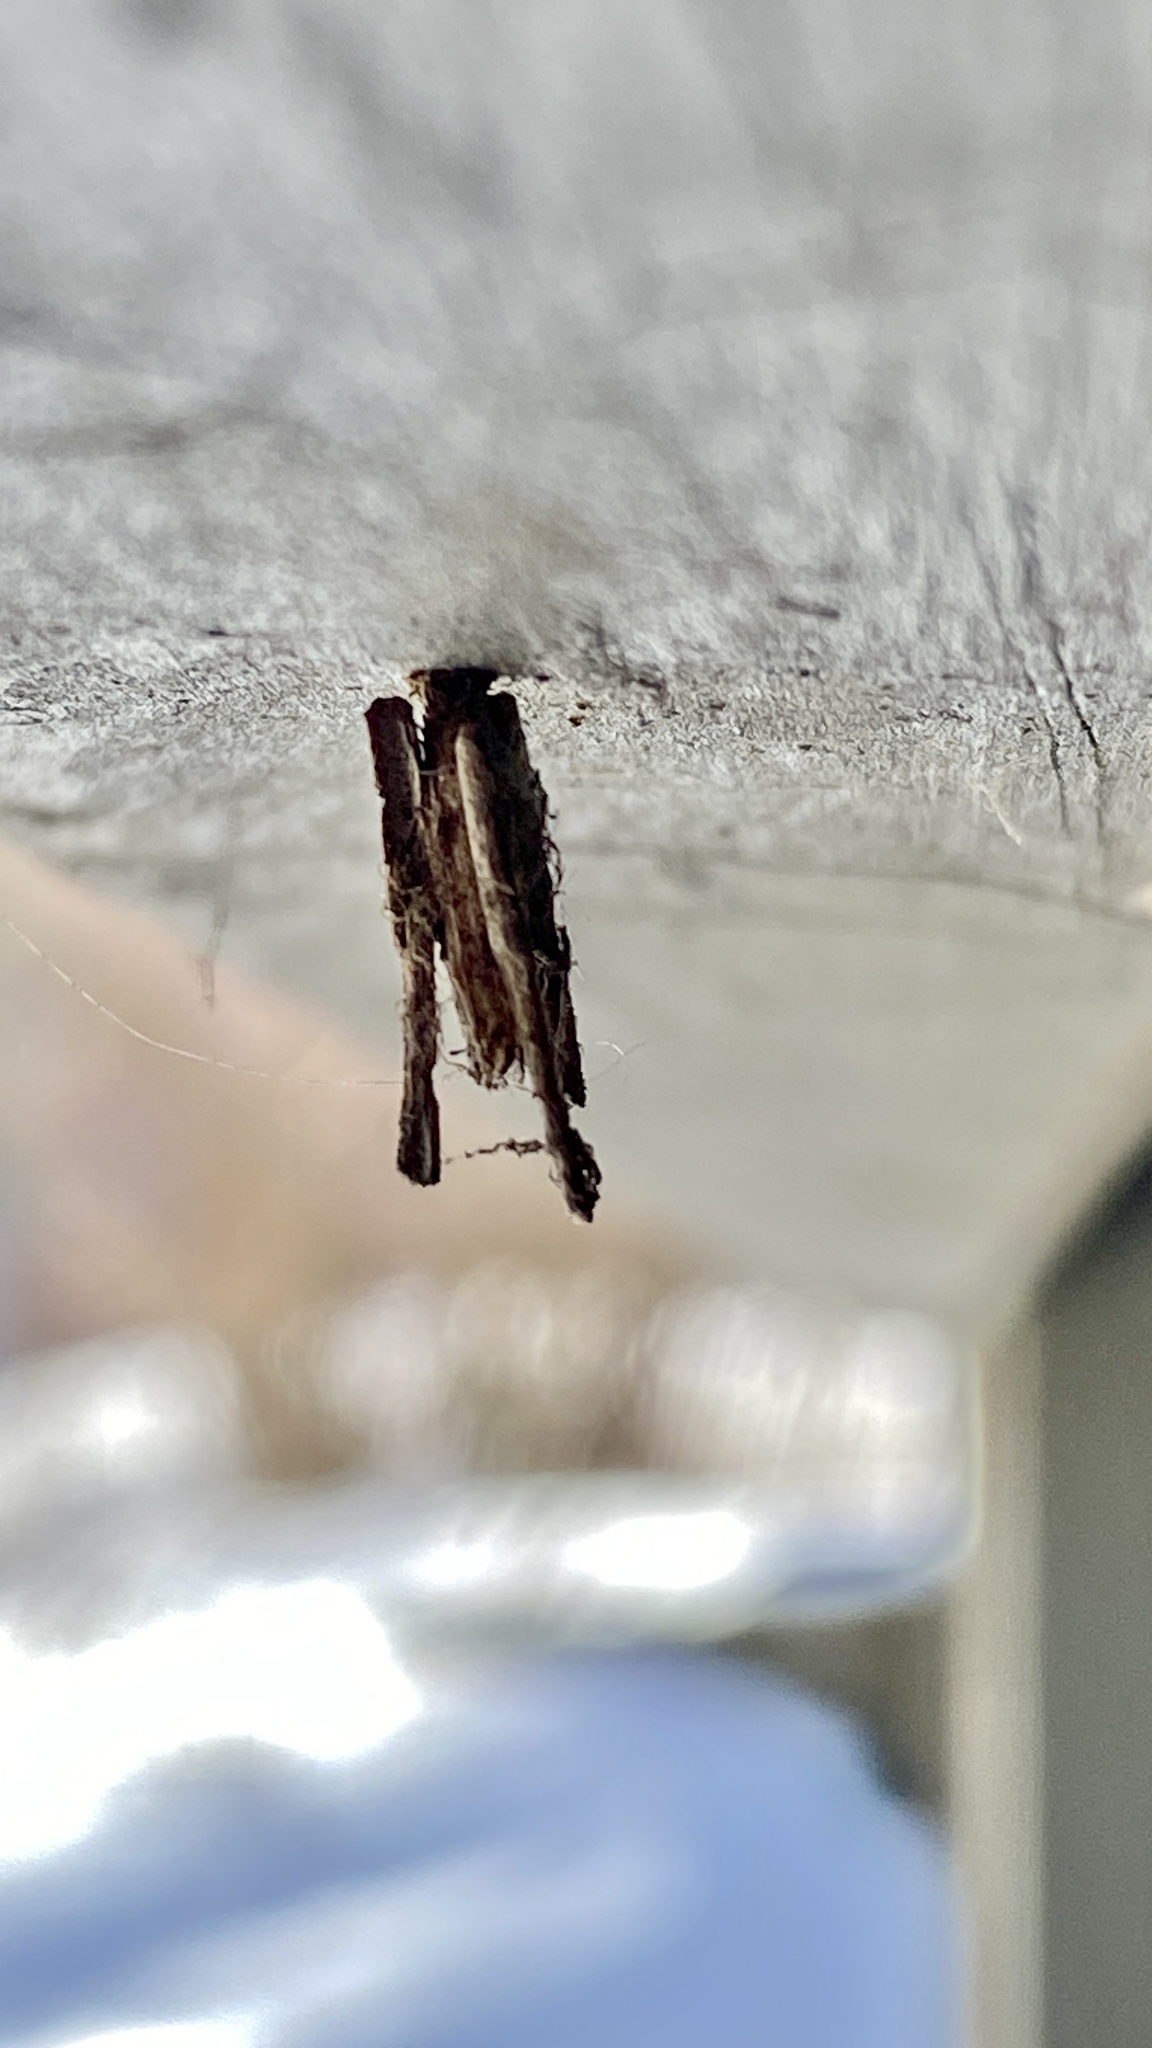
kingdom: Animalia
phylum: Arthropoda
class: Insecta
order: Lepidoptera
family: Psychidae
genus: Psyche
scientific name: Psyche casta
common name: Common sweep
